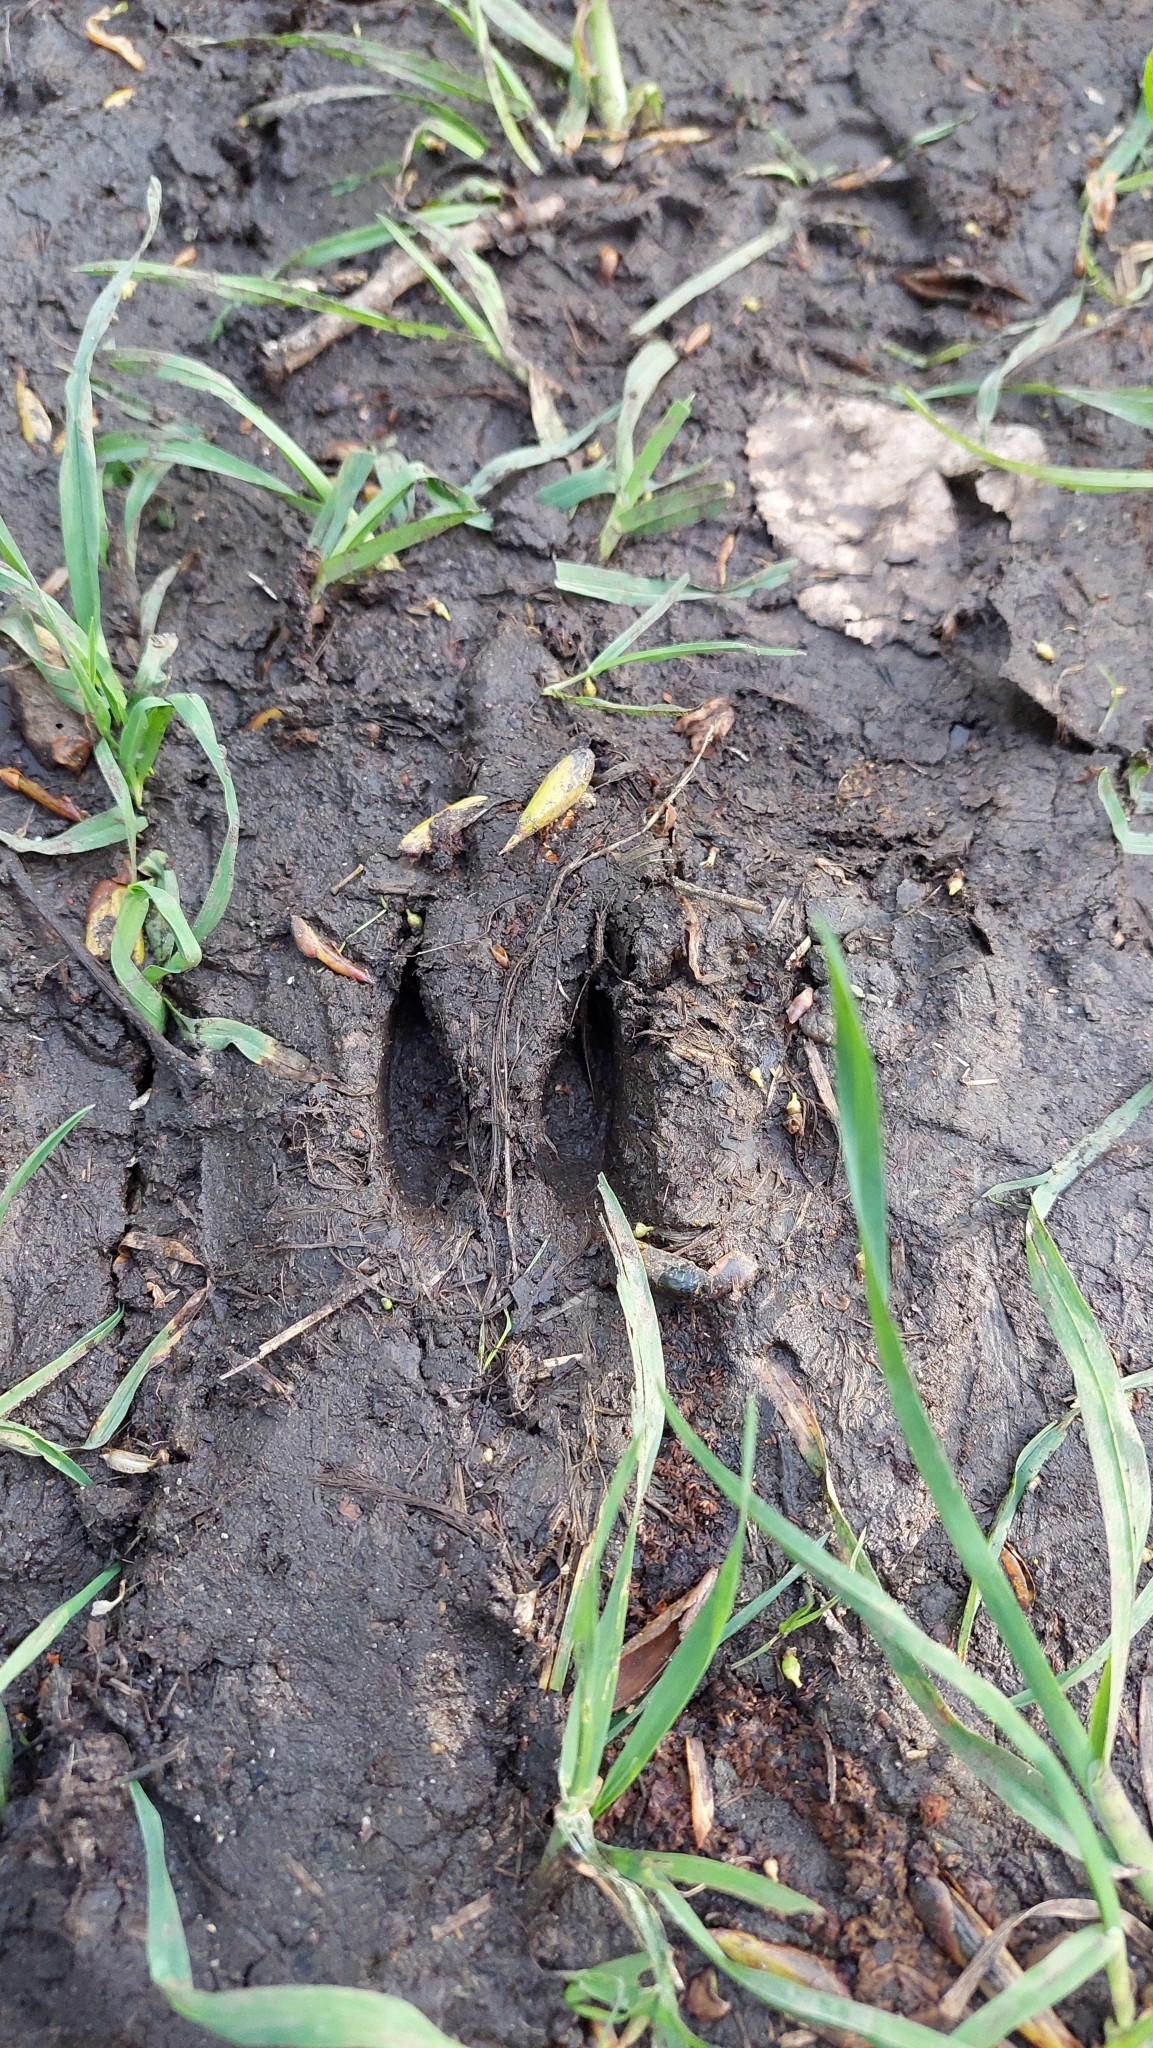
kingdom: Animalia
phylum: Chordata
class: Mammalia
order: Artiodactyla
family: Cervidae
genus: Capreolus
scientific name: Capreolus capreolus
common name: Western roe deer
